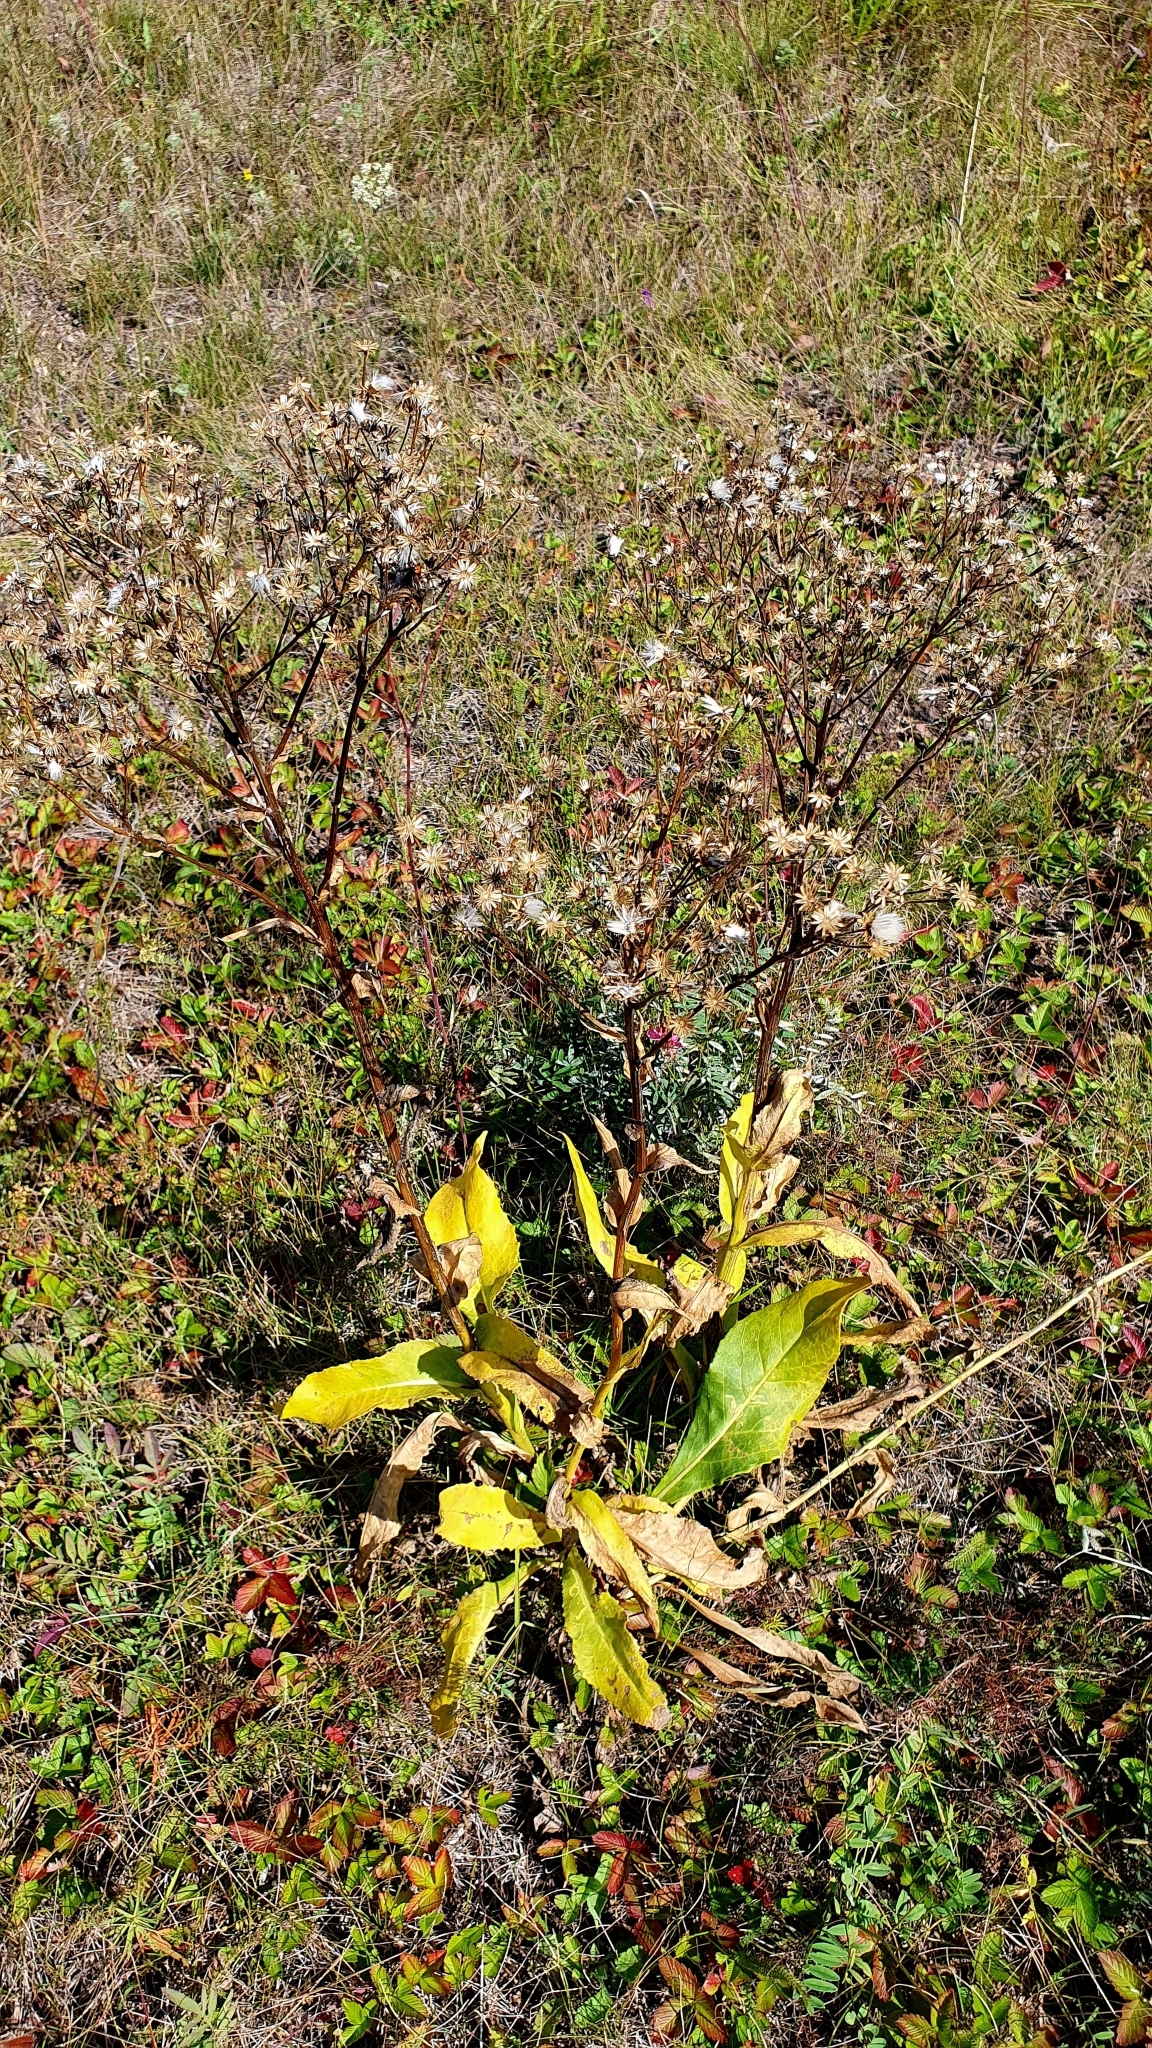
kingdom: Plantae
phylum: Tracheophyta
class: Magnoliopsida
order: Asterales
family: Asteraceae
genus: Senecio
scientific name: Senecio doria
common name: Golden ragwort
